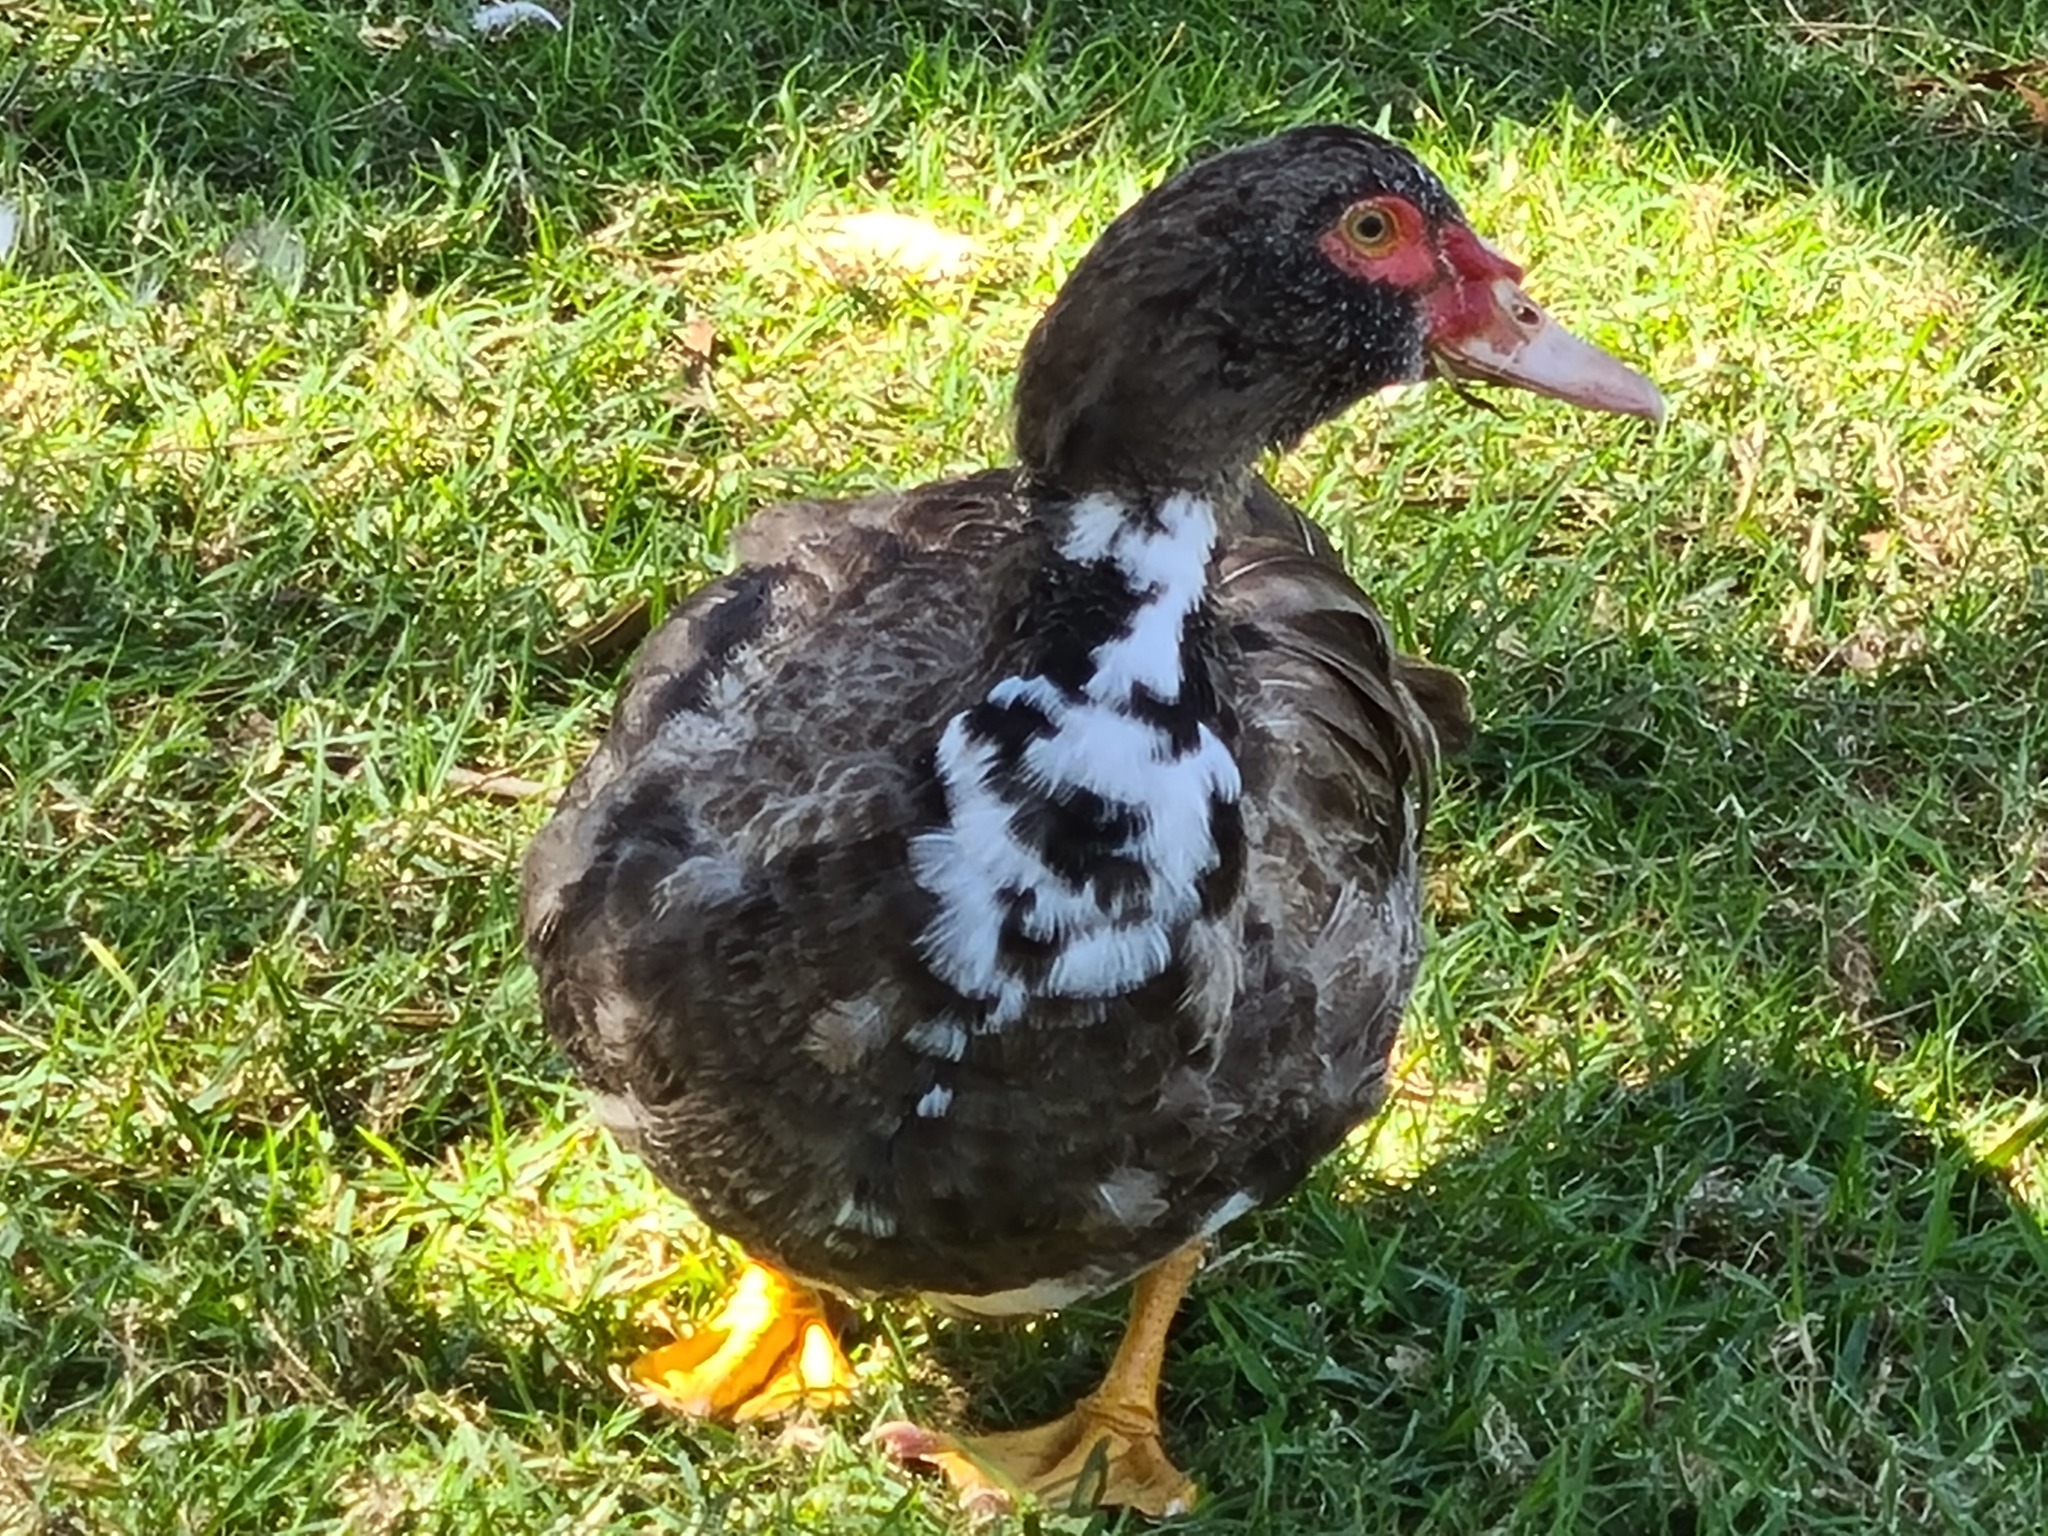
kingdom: Animalia
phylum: Chordata
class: Aves
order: Anseriformes
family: Anatidae
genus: Cairina
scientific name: Cairina moschata
